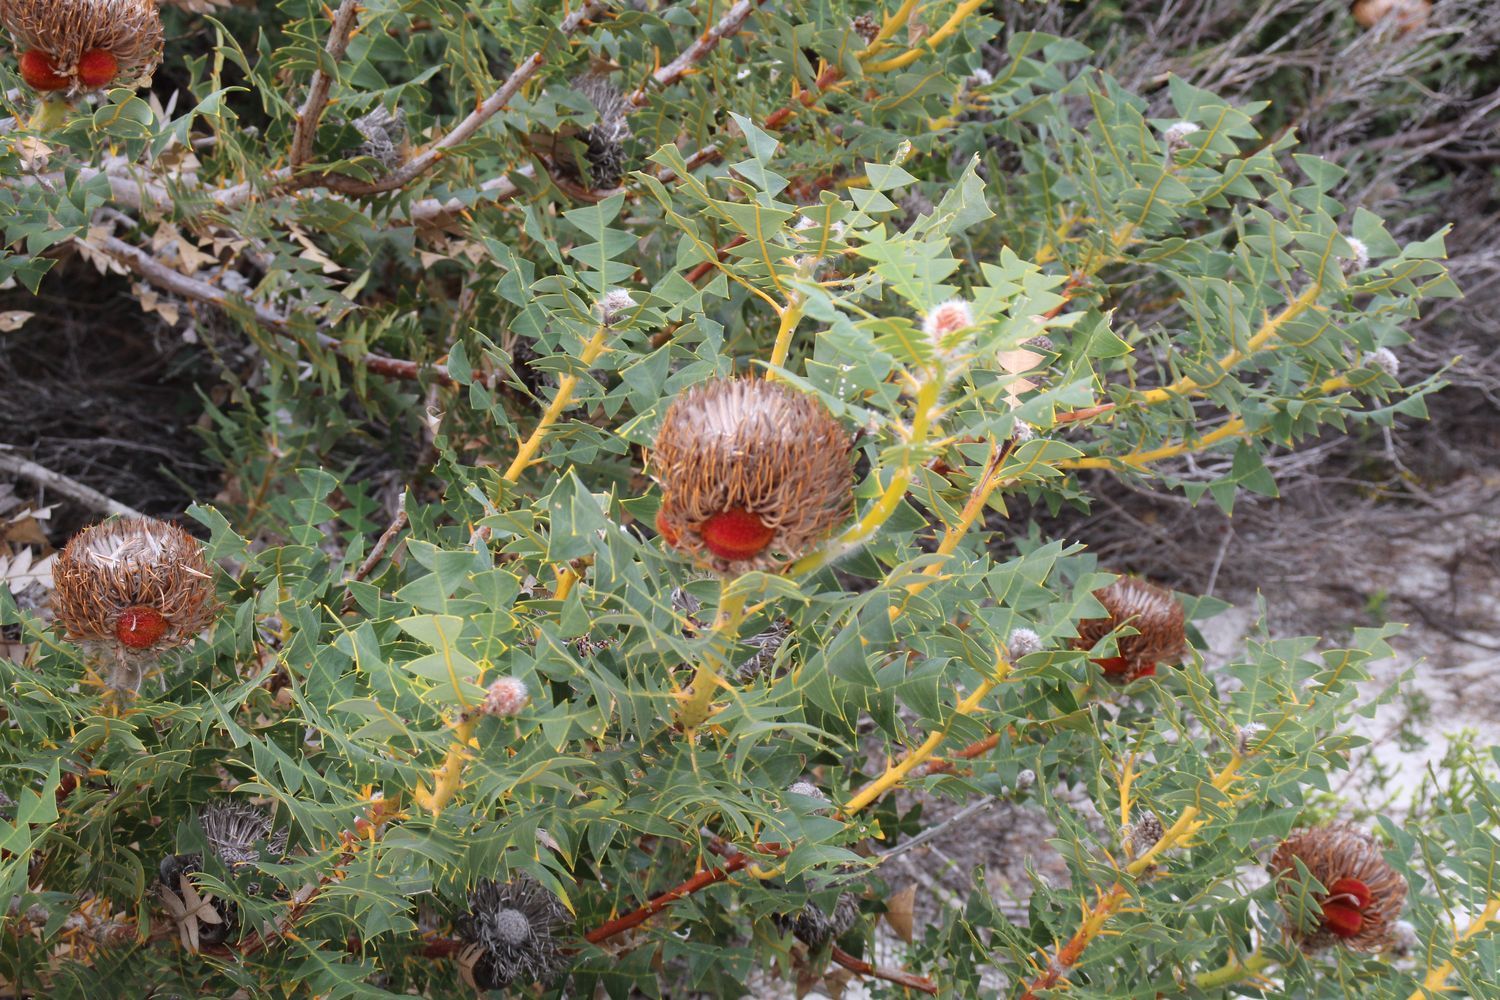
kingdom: Plantae
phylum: Tracheophyta
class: Magnoliopsida
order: Proteales
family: Proteaceae
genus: Banksia
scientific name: Banksia baxteri
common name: Bird's-nest banksia
